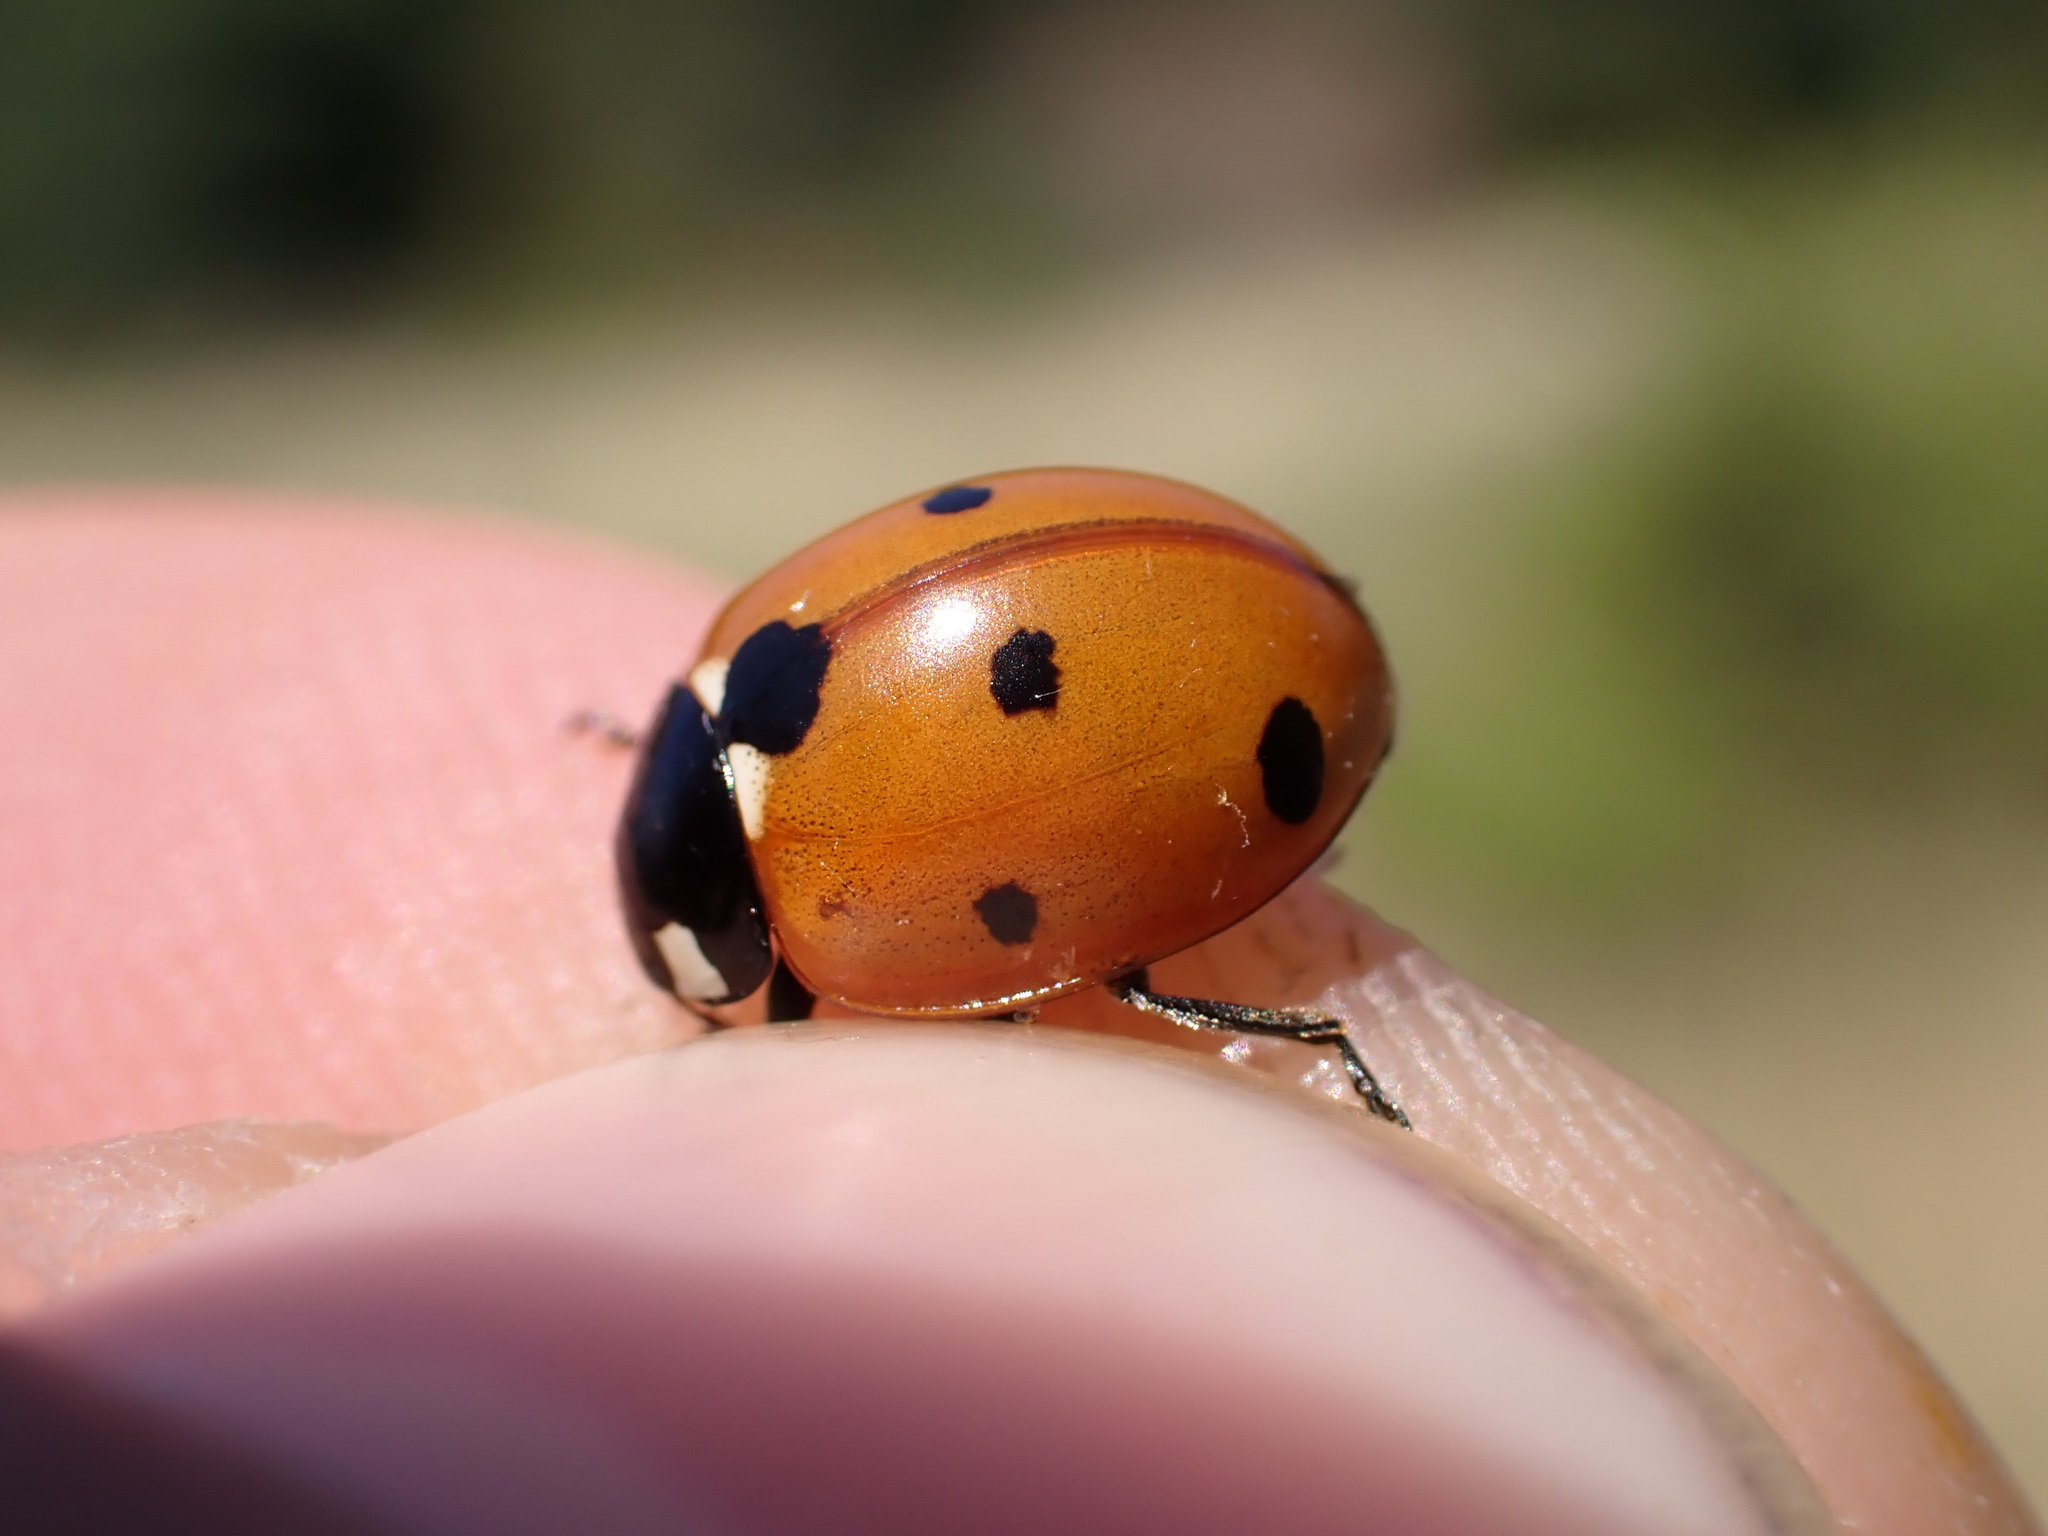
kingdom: Animalia
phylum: Arthropoda
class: Insecta
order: Coleoptera
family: Coccinellidae
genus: Coccinella
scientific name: Coccinella septempunctata
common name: Sevenspotted lady beetle
